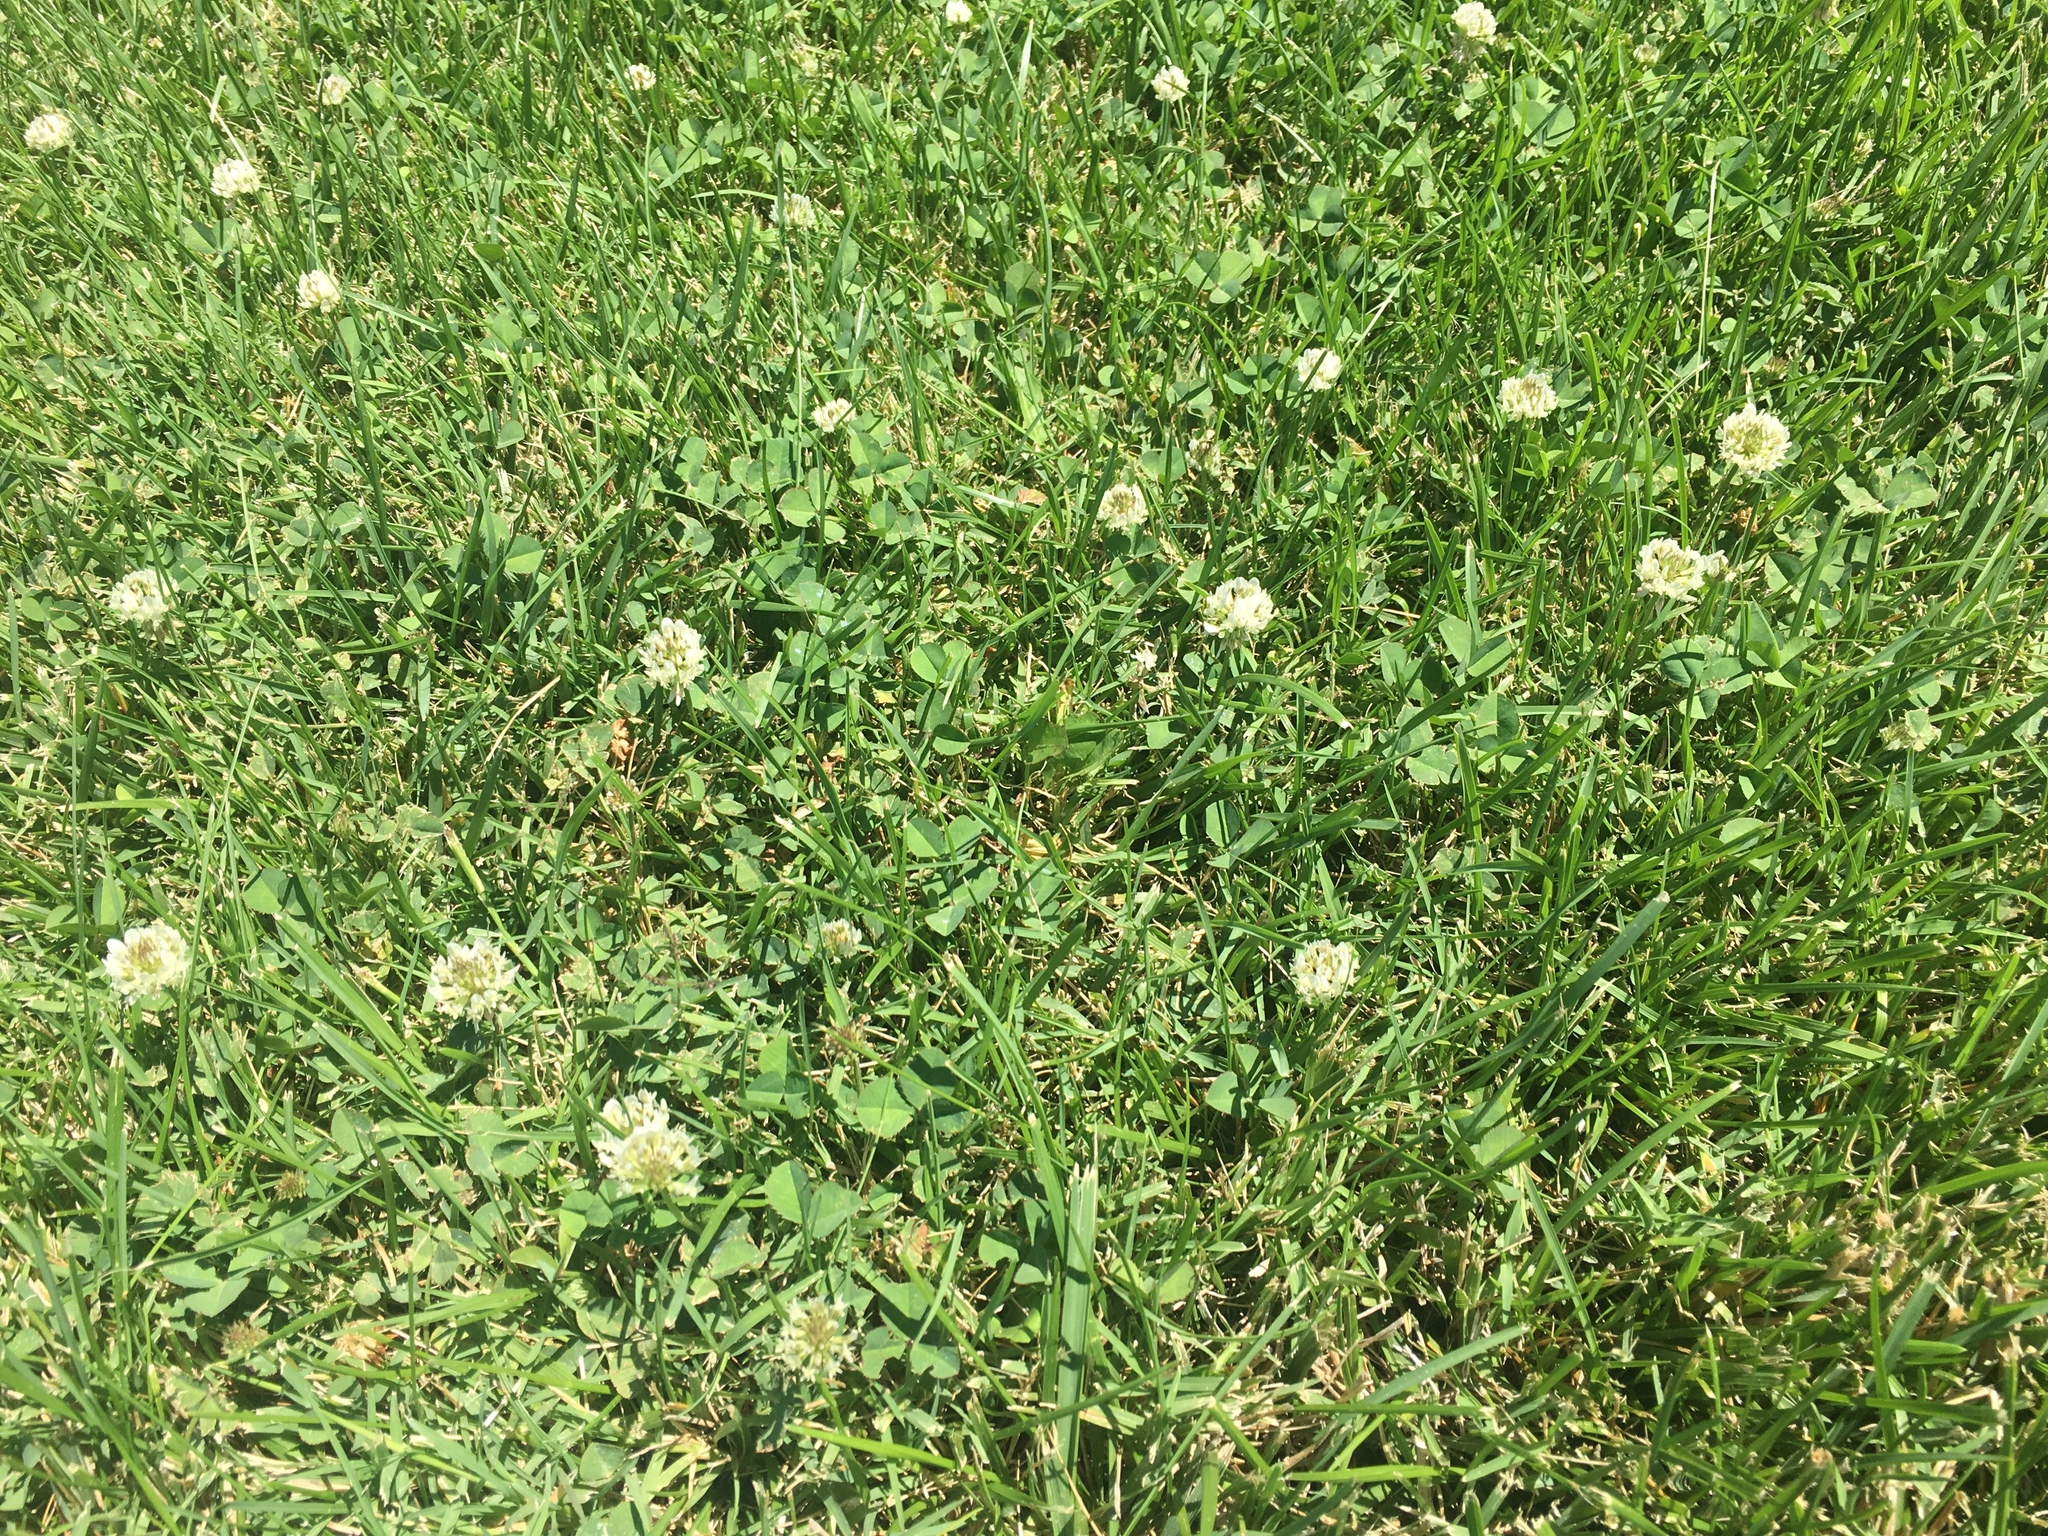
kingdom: Plantae
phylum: Tracheophyta
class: Magnoliopsida
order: Fabales
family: Fabaceae
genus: Trifolium
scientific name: Trifolium repens
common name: White clover
